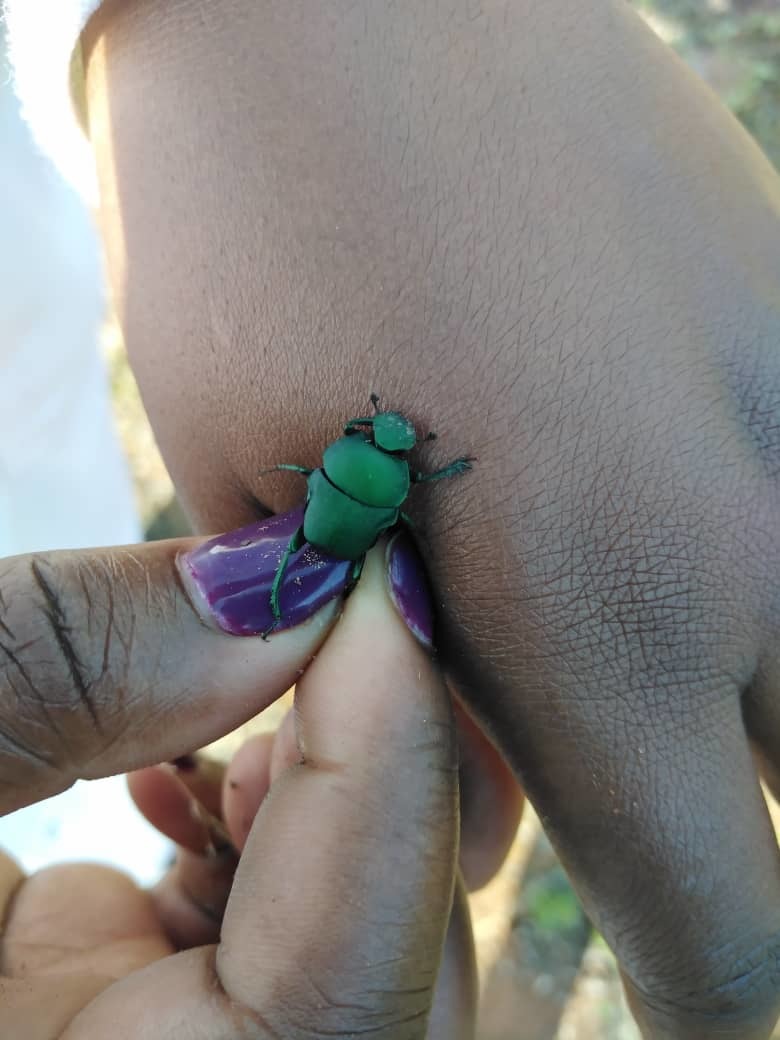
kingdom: Animalia
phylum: Arthropoda
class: Insecta
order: Coleoptera
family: Scarabaeidae
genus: Gymnopleurus
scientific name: Gymnopleurus humeralis
